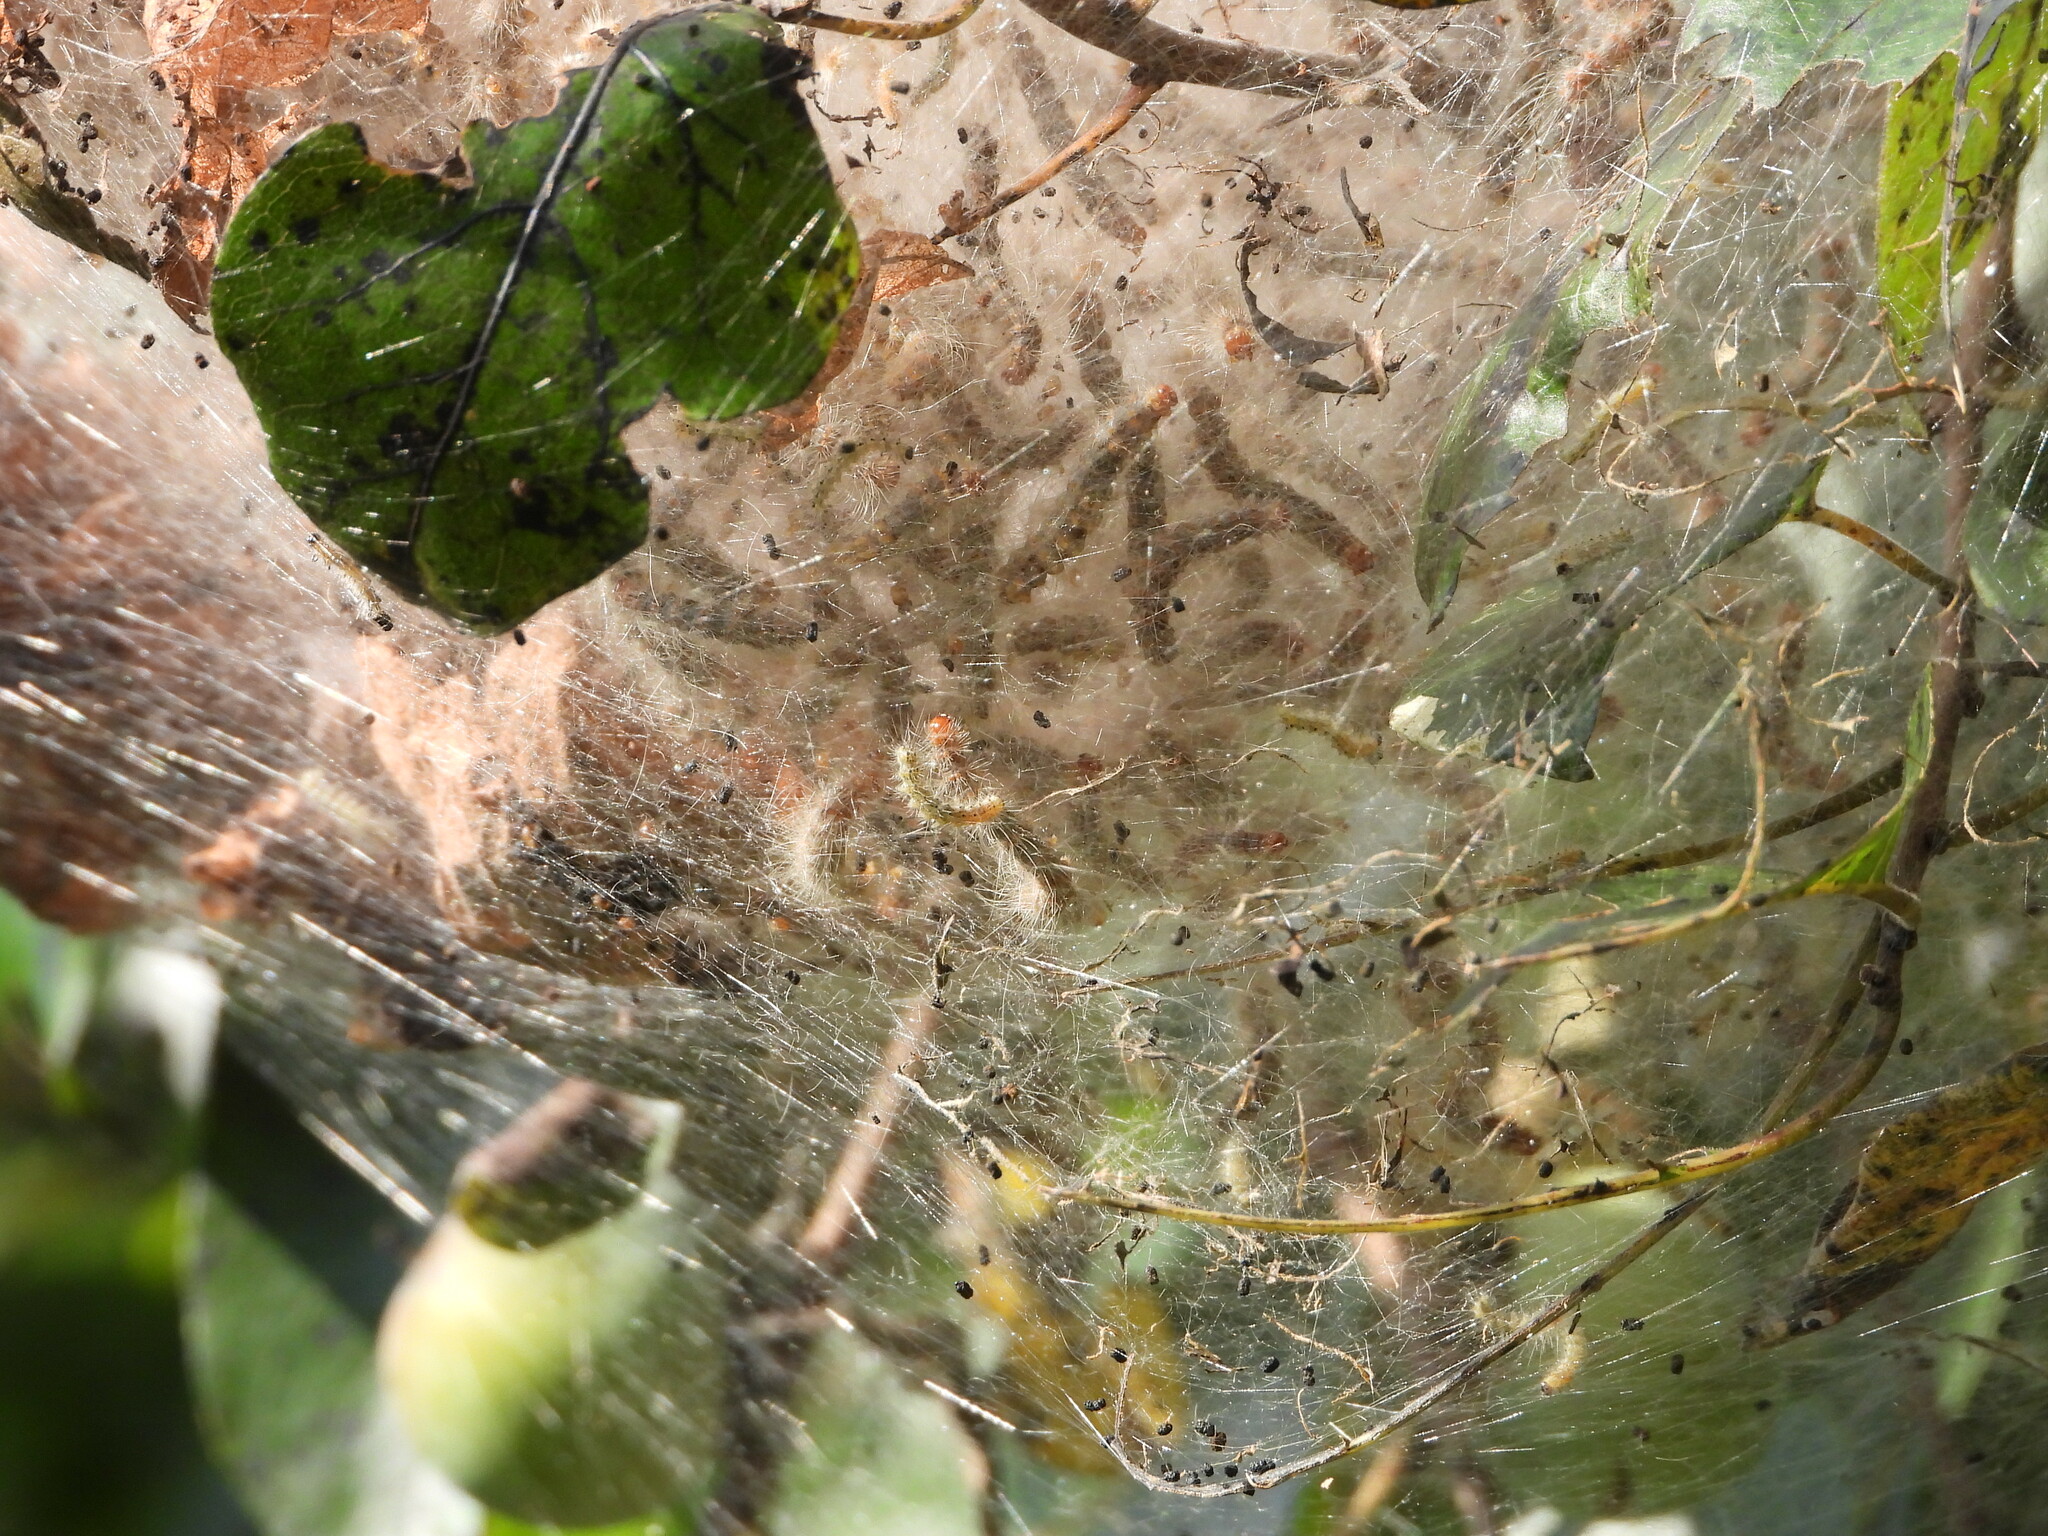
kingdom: Animalia
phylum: Arthropoda
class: Insecta
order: Lepidoptera
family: Erebidae
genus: Hyphantria
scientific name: Hyphantria cunea
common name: American white moth
